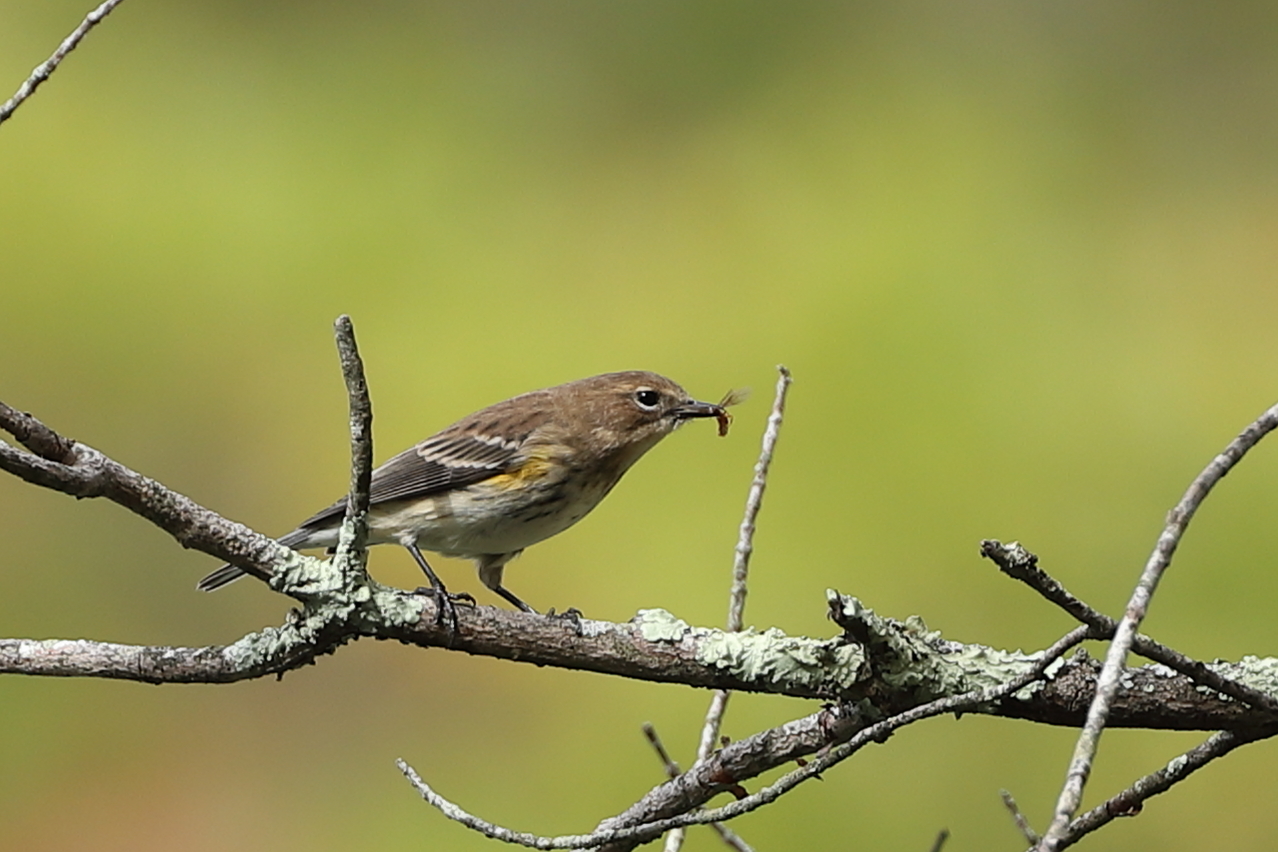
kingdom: Animalia
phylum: Chordata
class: Aves
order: Passeriformes
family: Parulidae
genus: Setophaga
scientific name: Setophaga coronata
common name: Myrtle warbler
